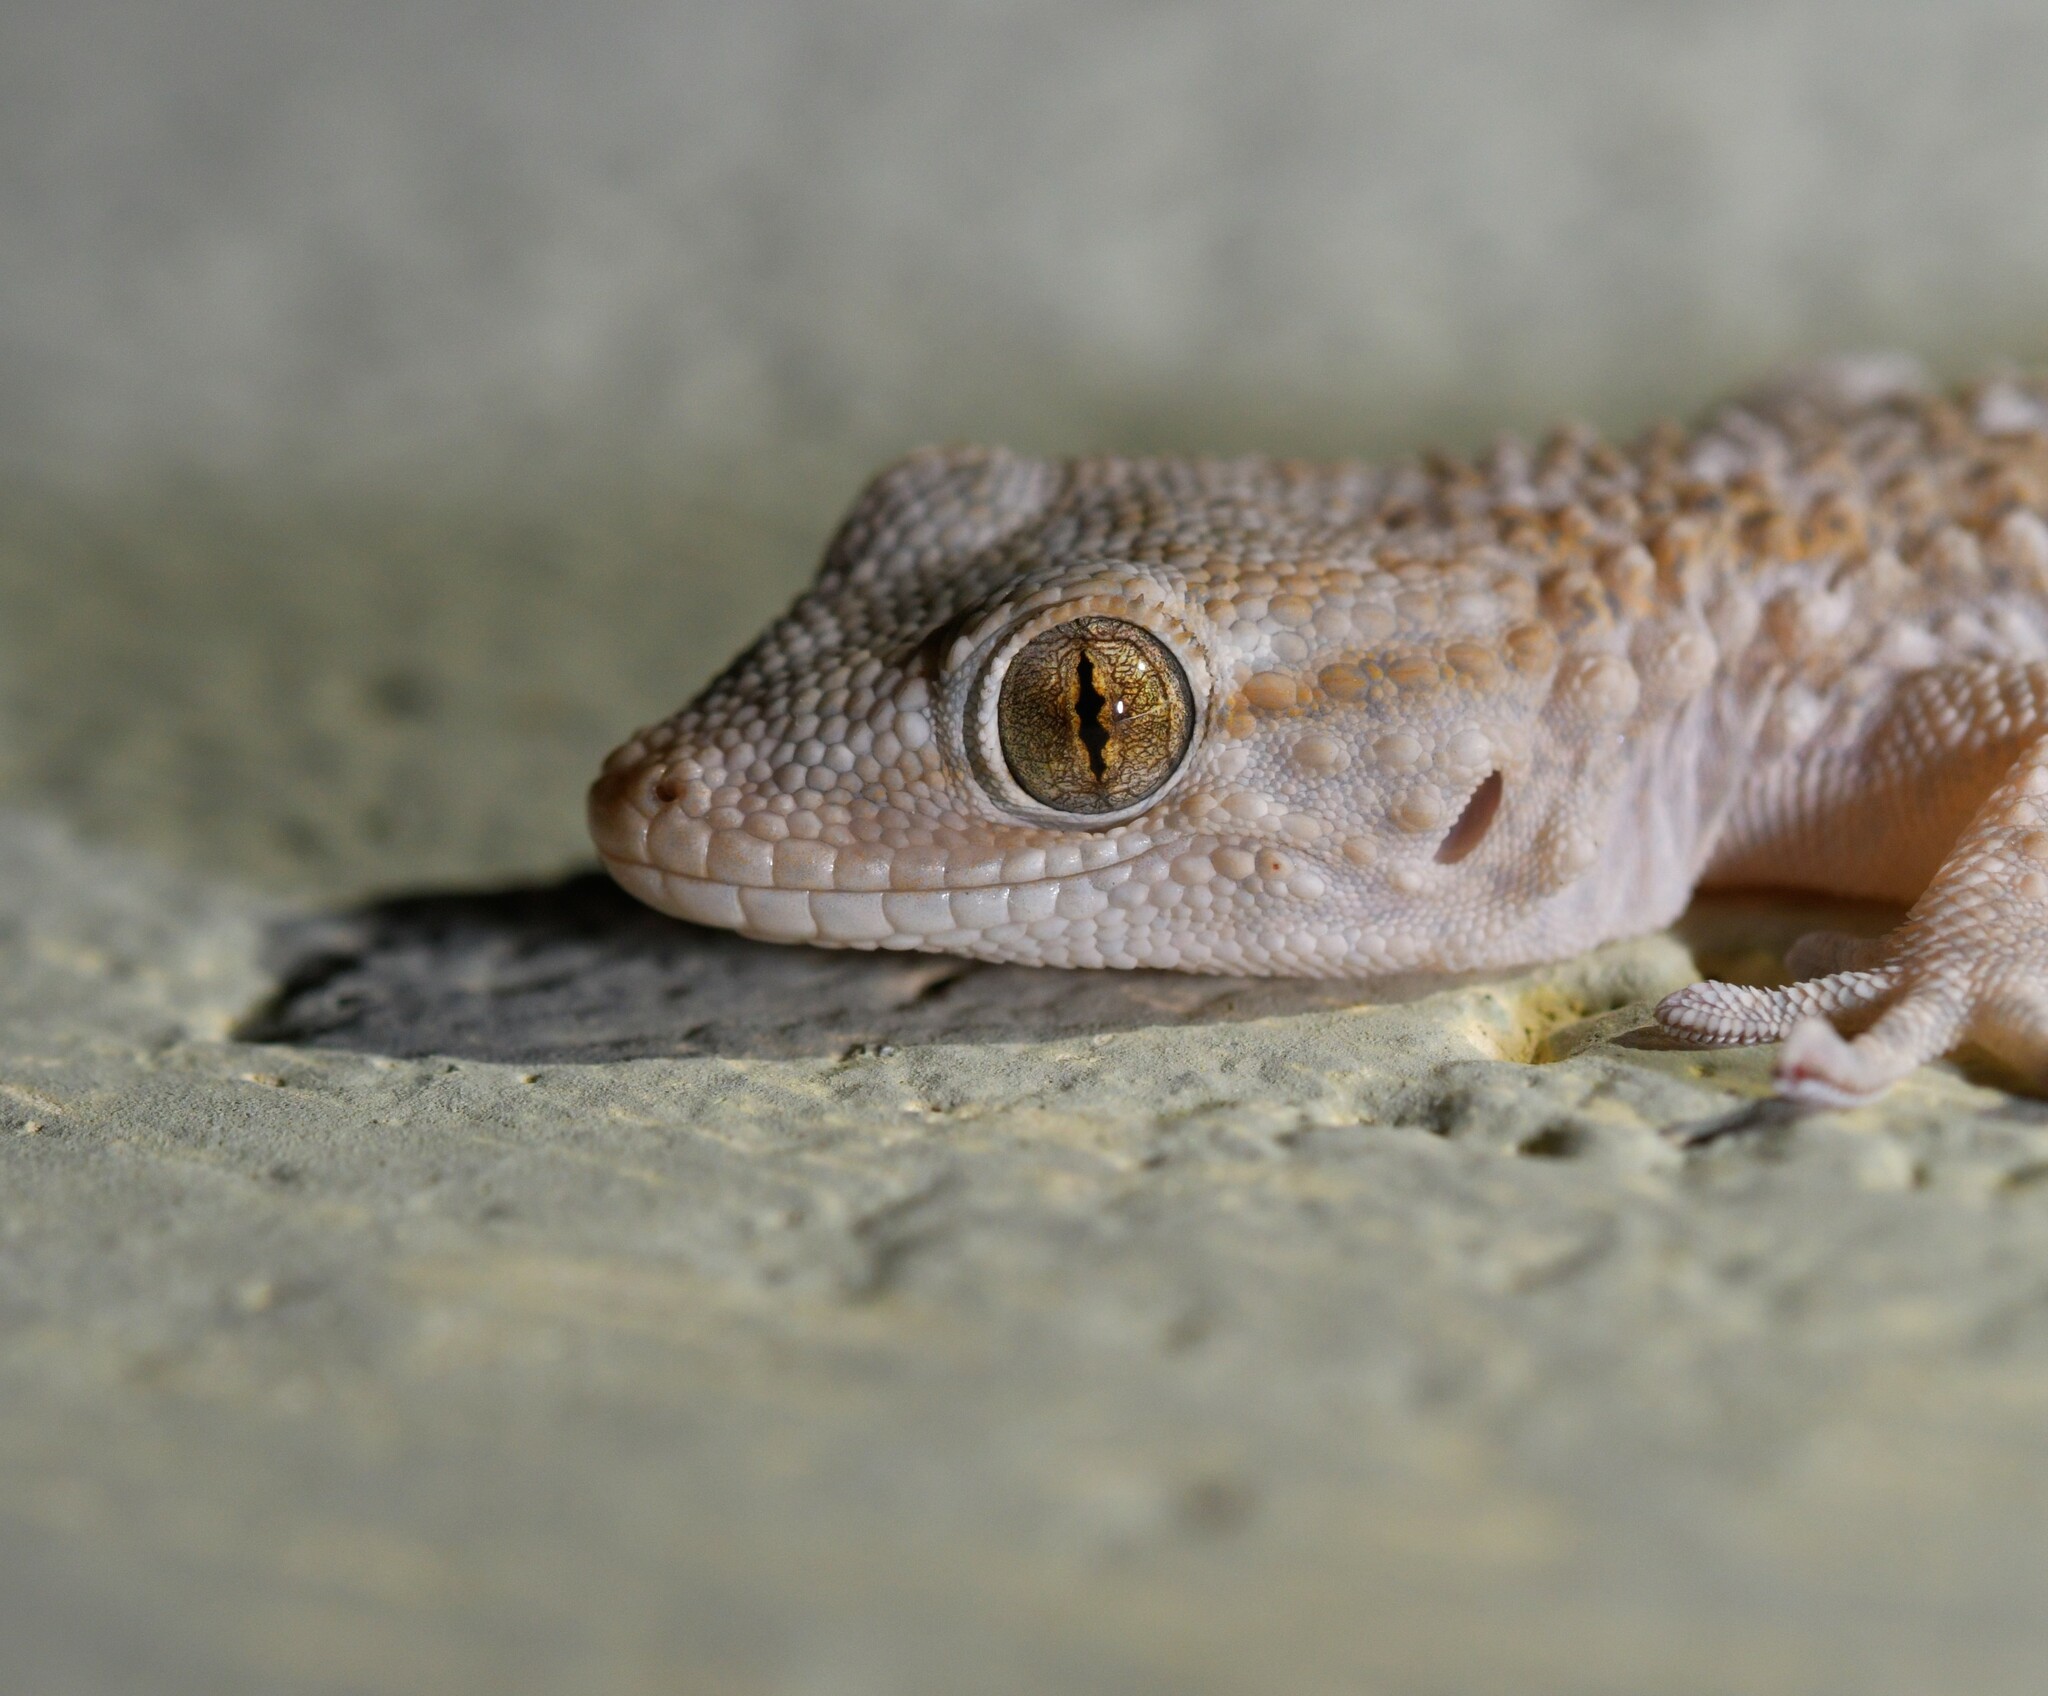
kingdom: Animalia
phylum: Chordata
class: Squamata
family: Phyllodactylidae
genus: Tarentola
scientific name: Tarentola mauritanica
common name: Moorish gecko
